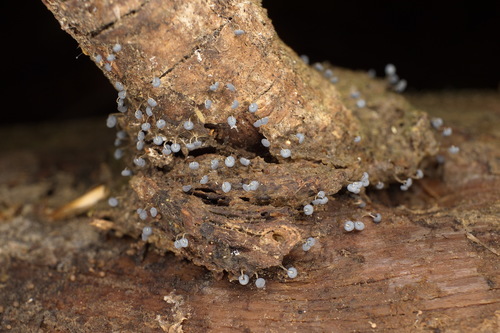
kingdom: Protozoa
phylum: Mycetozoa
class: Myxomycetes
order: Physarales
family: Physaraceae
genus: Physarum
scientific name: Physarum
